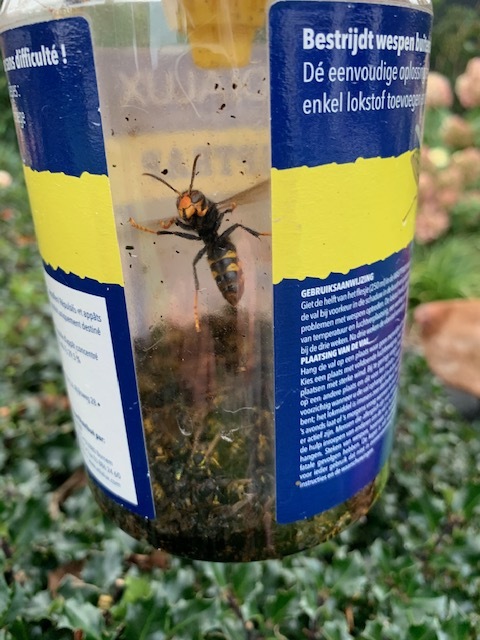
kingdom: Animalia
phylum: Arthropoda
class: Insecta
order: Hymenoptera
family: Vespidae
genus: Vespa
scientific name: Vespa velutina
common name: Asian hornet
